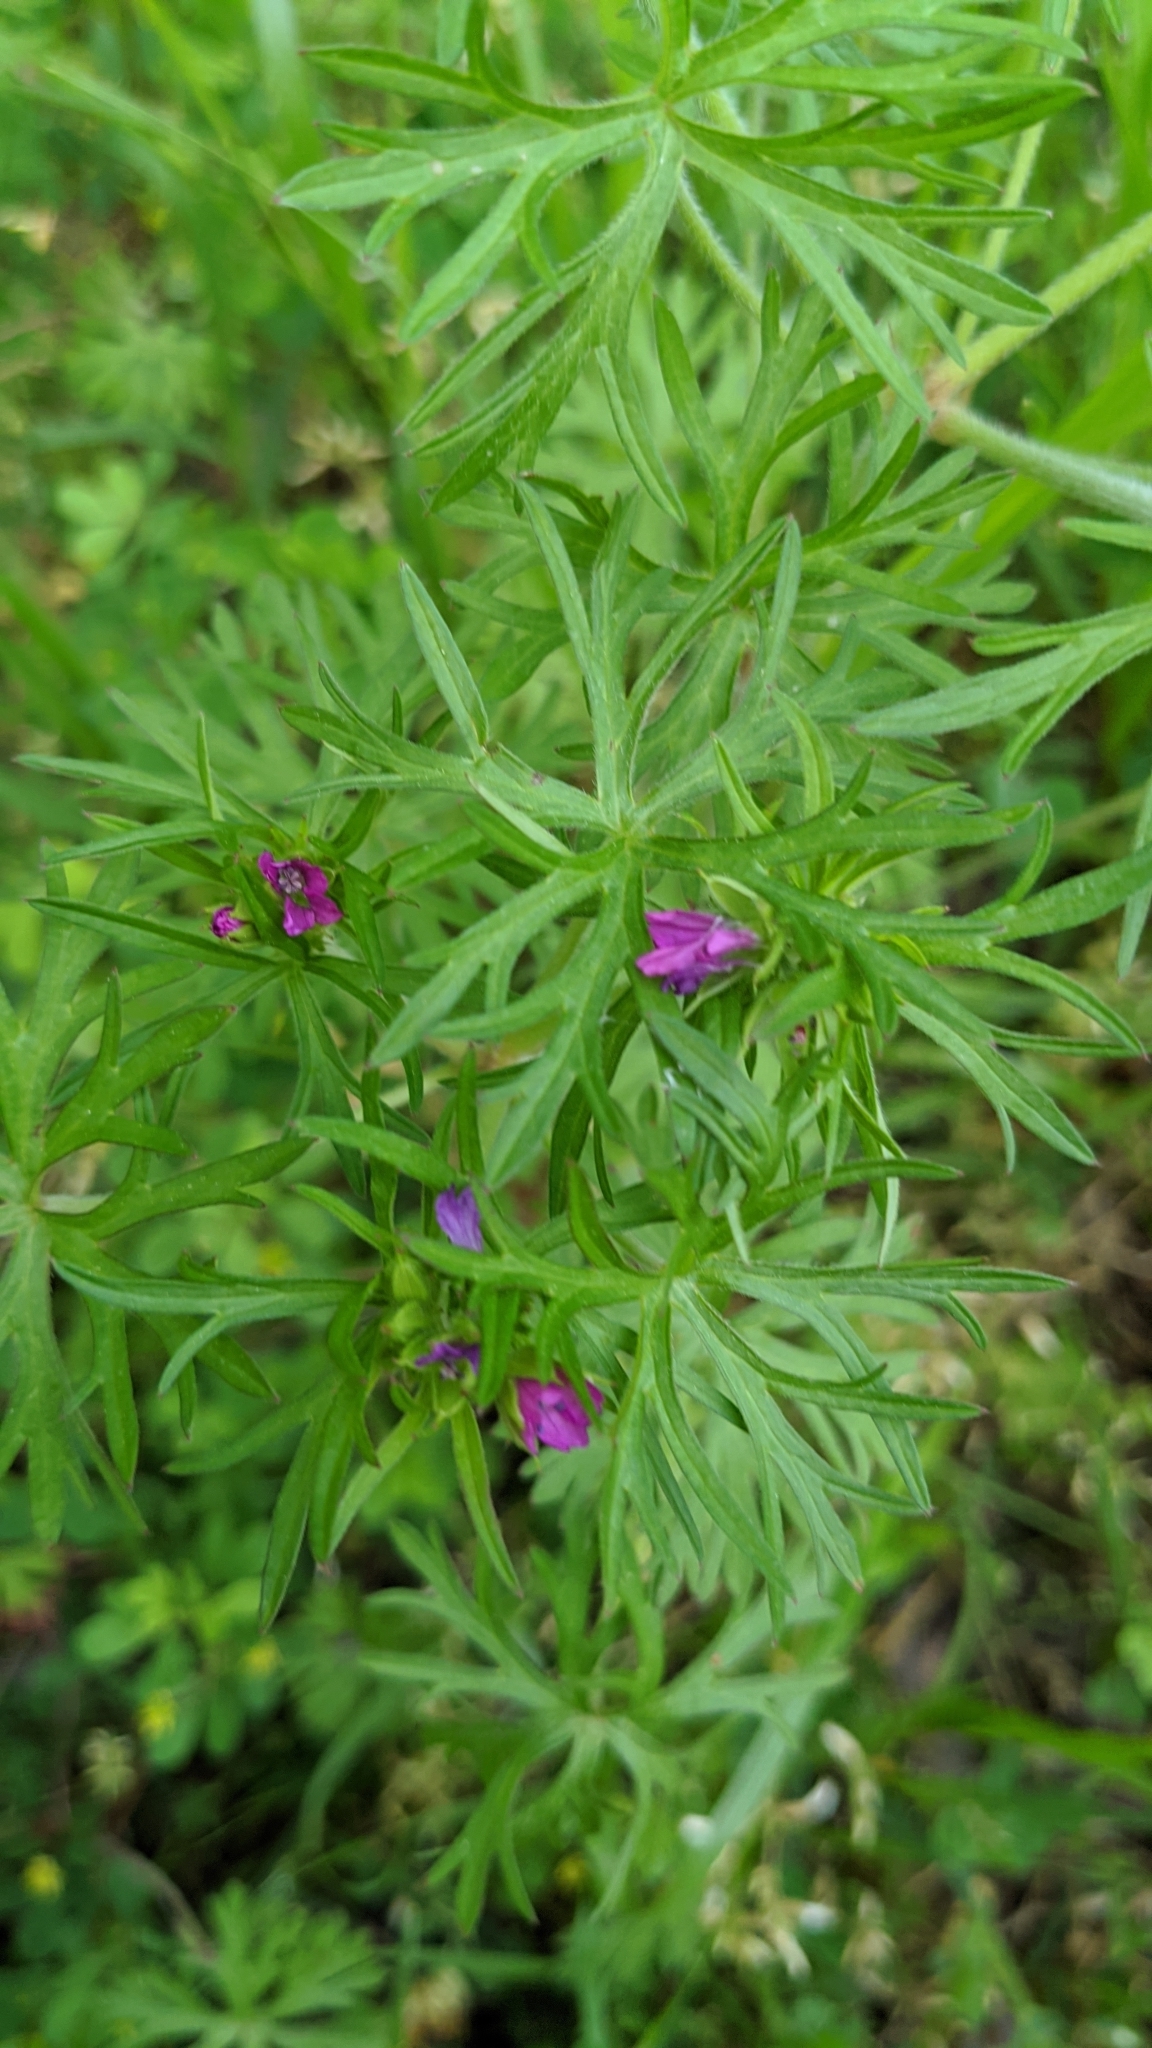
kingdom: Plantae
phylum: Tracheophyta
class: Magnoliopsida
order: Geraniales
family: Geraniaceae
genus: Geranium
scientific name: Geranium dissectum
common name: Cut-leaved crane's-bill
